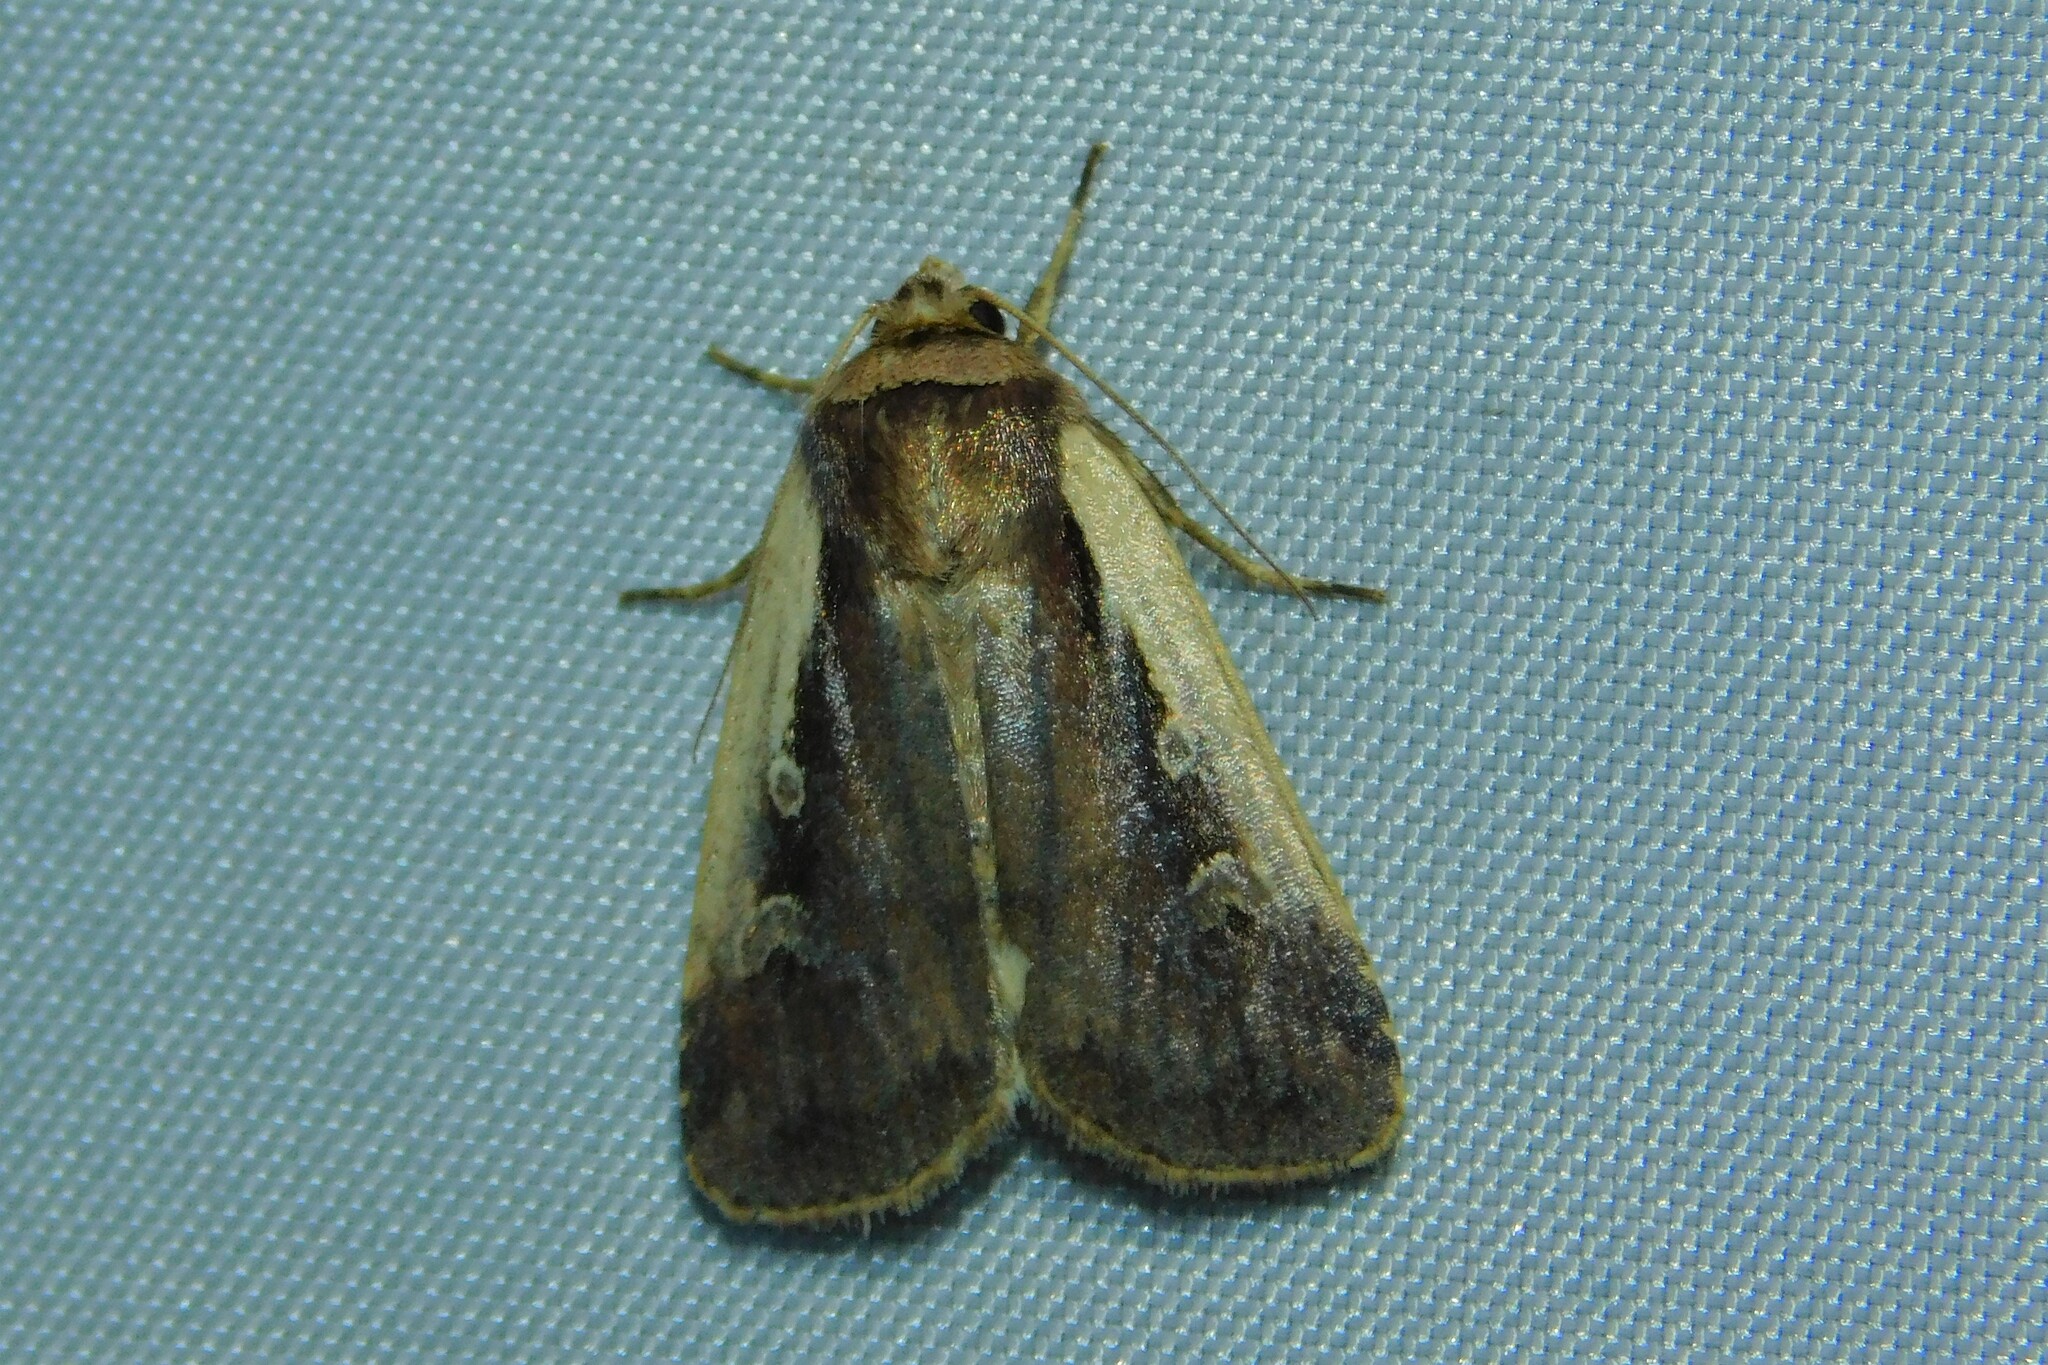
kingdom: Animalia
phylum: Arthropoda
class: Insecta
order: Lepidoptera
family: Noctuidae
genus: Ochropleura
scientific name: Ochropleura plecta
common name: Flame shoulder
